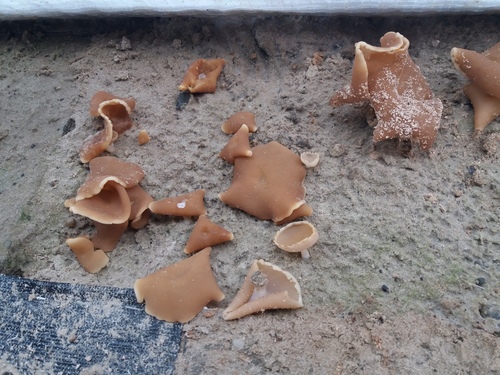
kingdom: Fungi
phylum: Ascomycota
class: Pezizomycetes
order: Pezizales
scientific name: Pezizales
